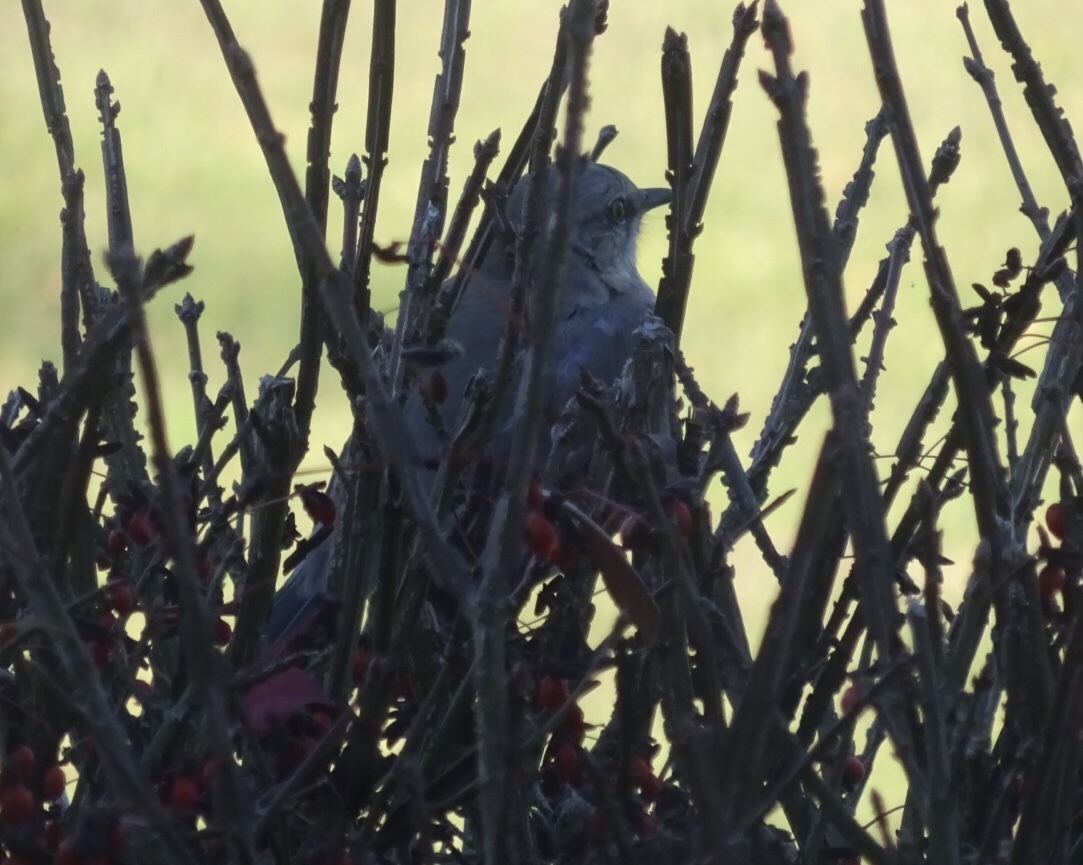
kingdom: Animalia
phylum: Chordata
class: Aves
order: Passeriformes
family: Mimidae
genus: Mimus
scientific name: Mimus polyglottos
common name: Northern mockingbird
